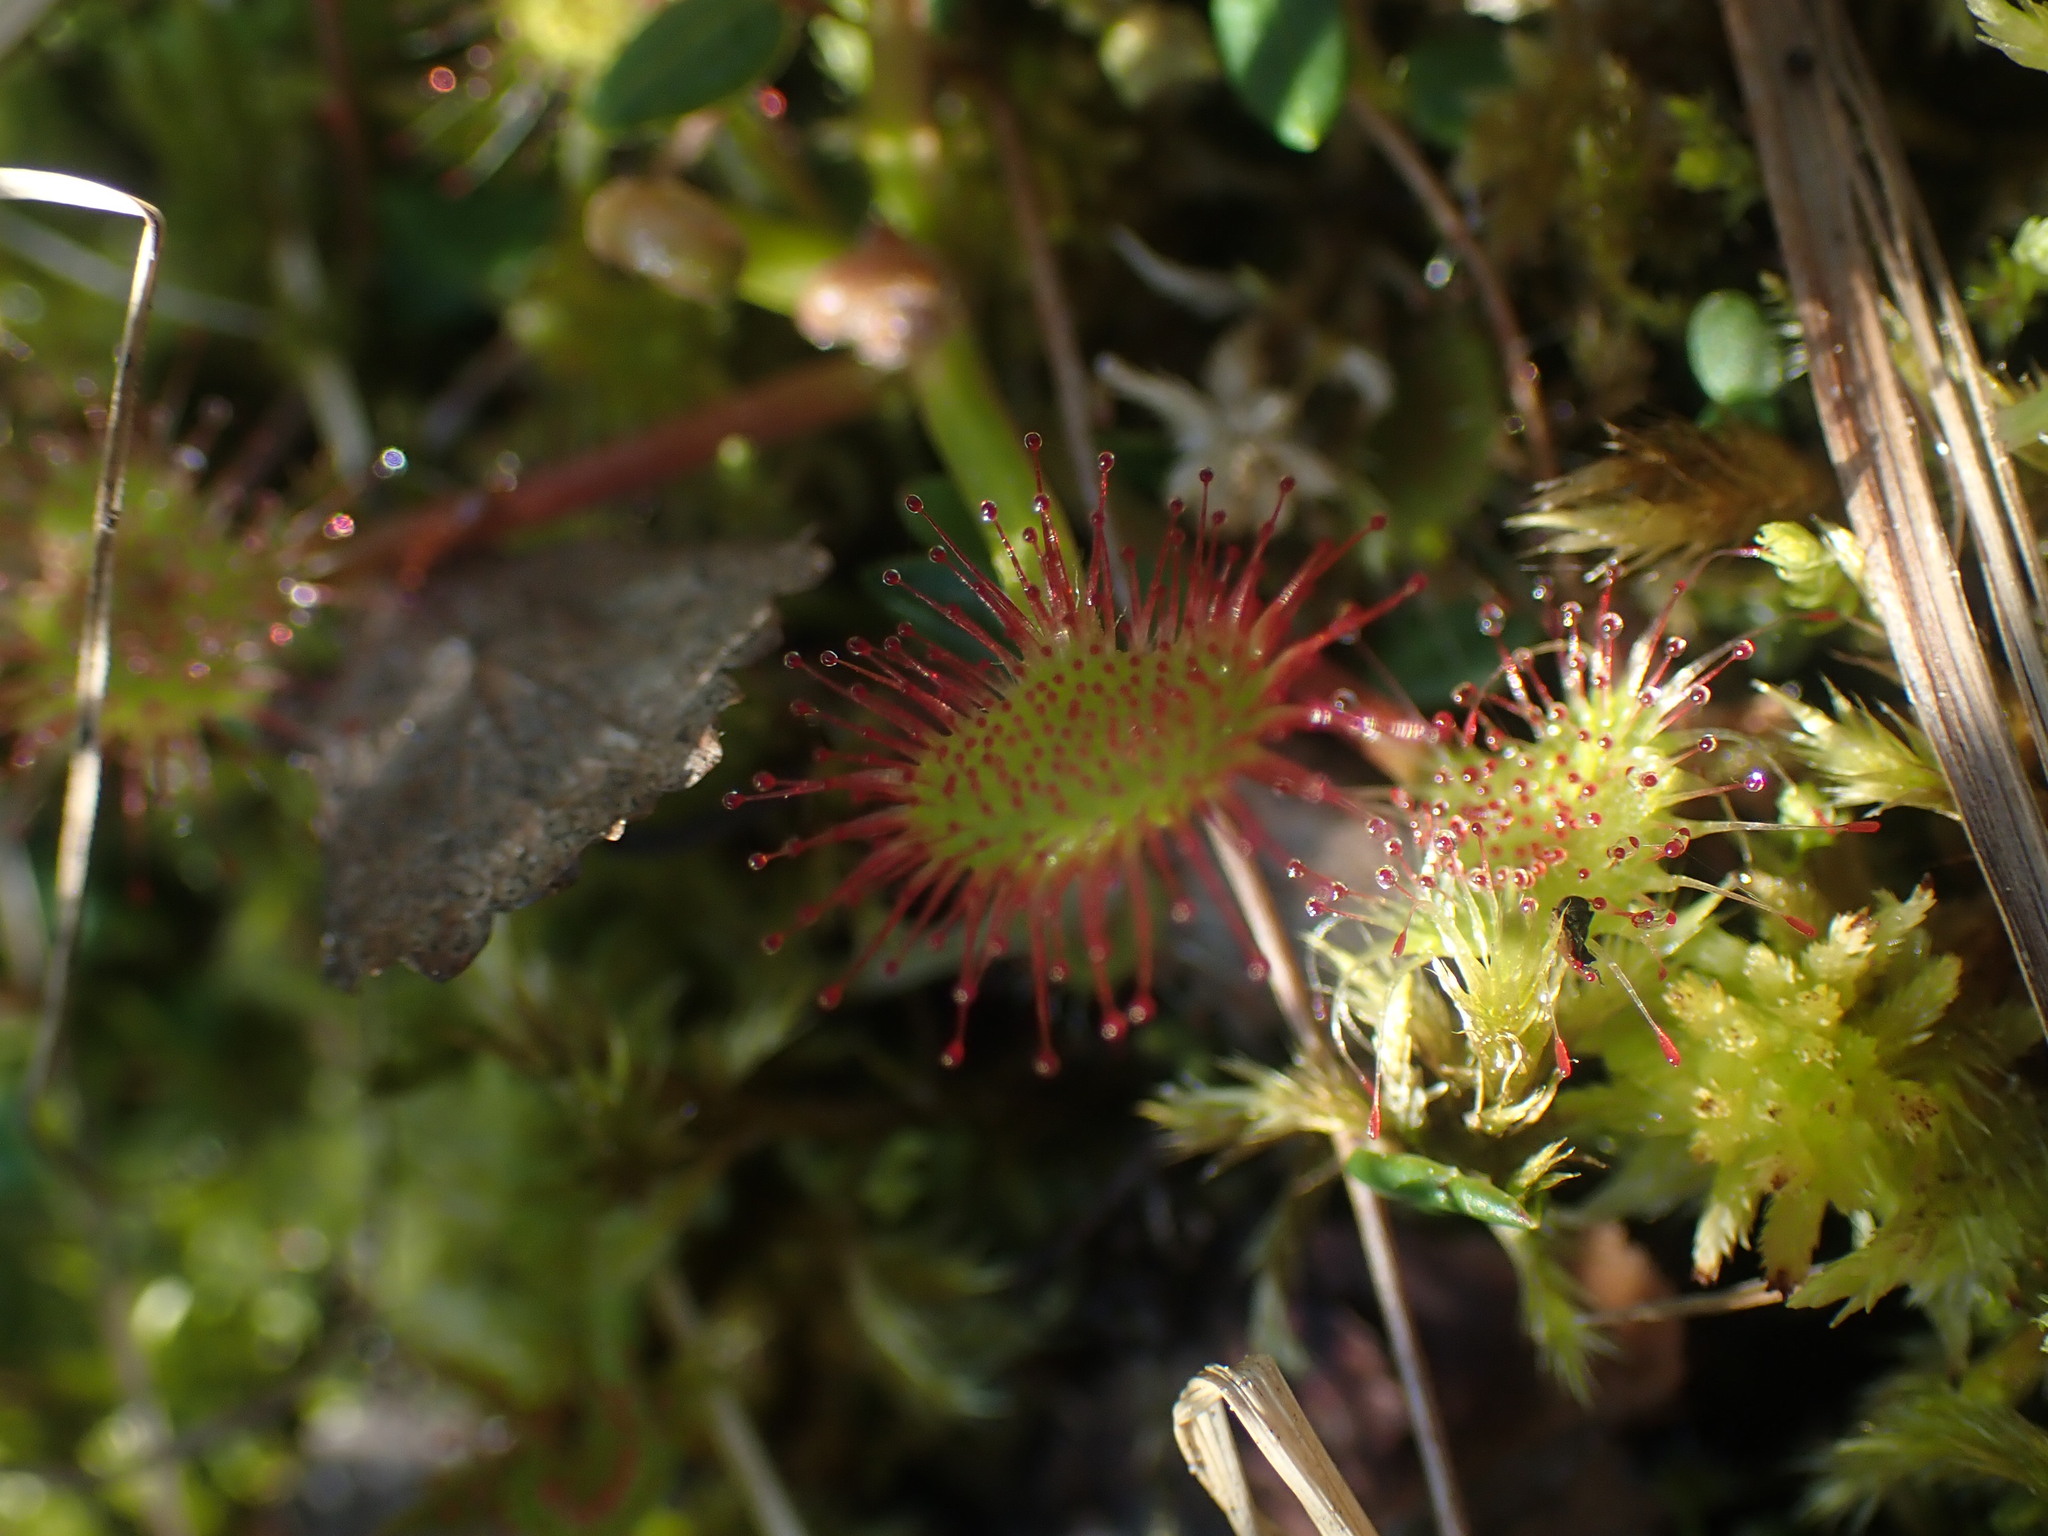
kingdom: Plantae
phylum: Tracheophyta
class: Magnoliopsida
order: Caryophyllales
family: Droseraceae
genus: Drosera
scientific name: Drosera rotundifolia
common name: Round-leaved sundew
